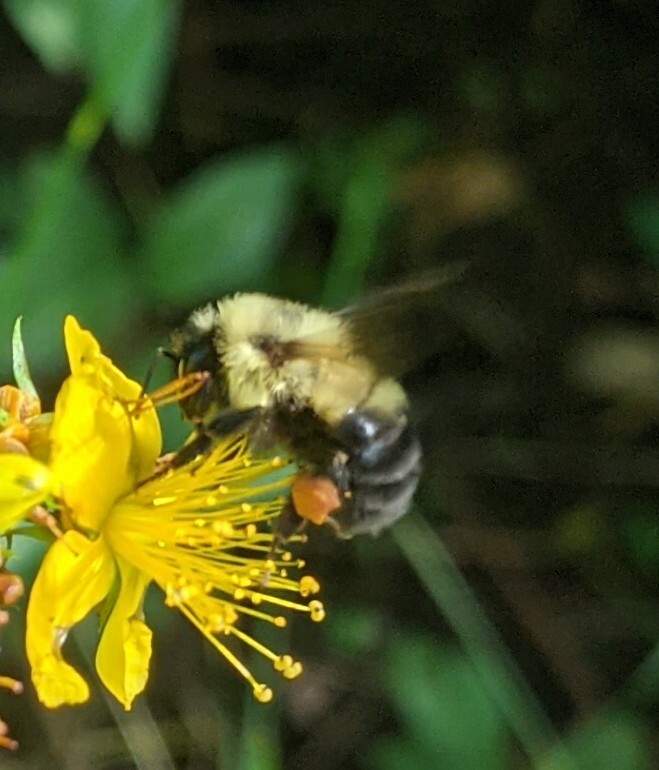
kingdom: Animalia
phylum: Arthropoda
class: Insecta
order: Hymenoptera
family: Apidae
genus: Bombus
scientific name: Bombus bimaculatus
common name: Two-spotted bumble bee
